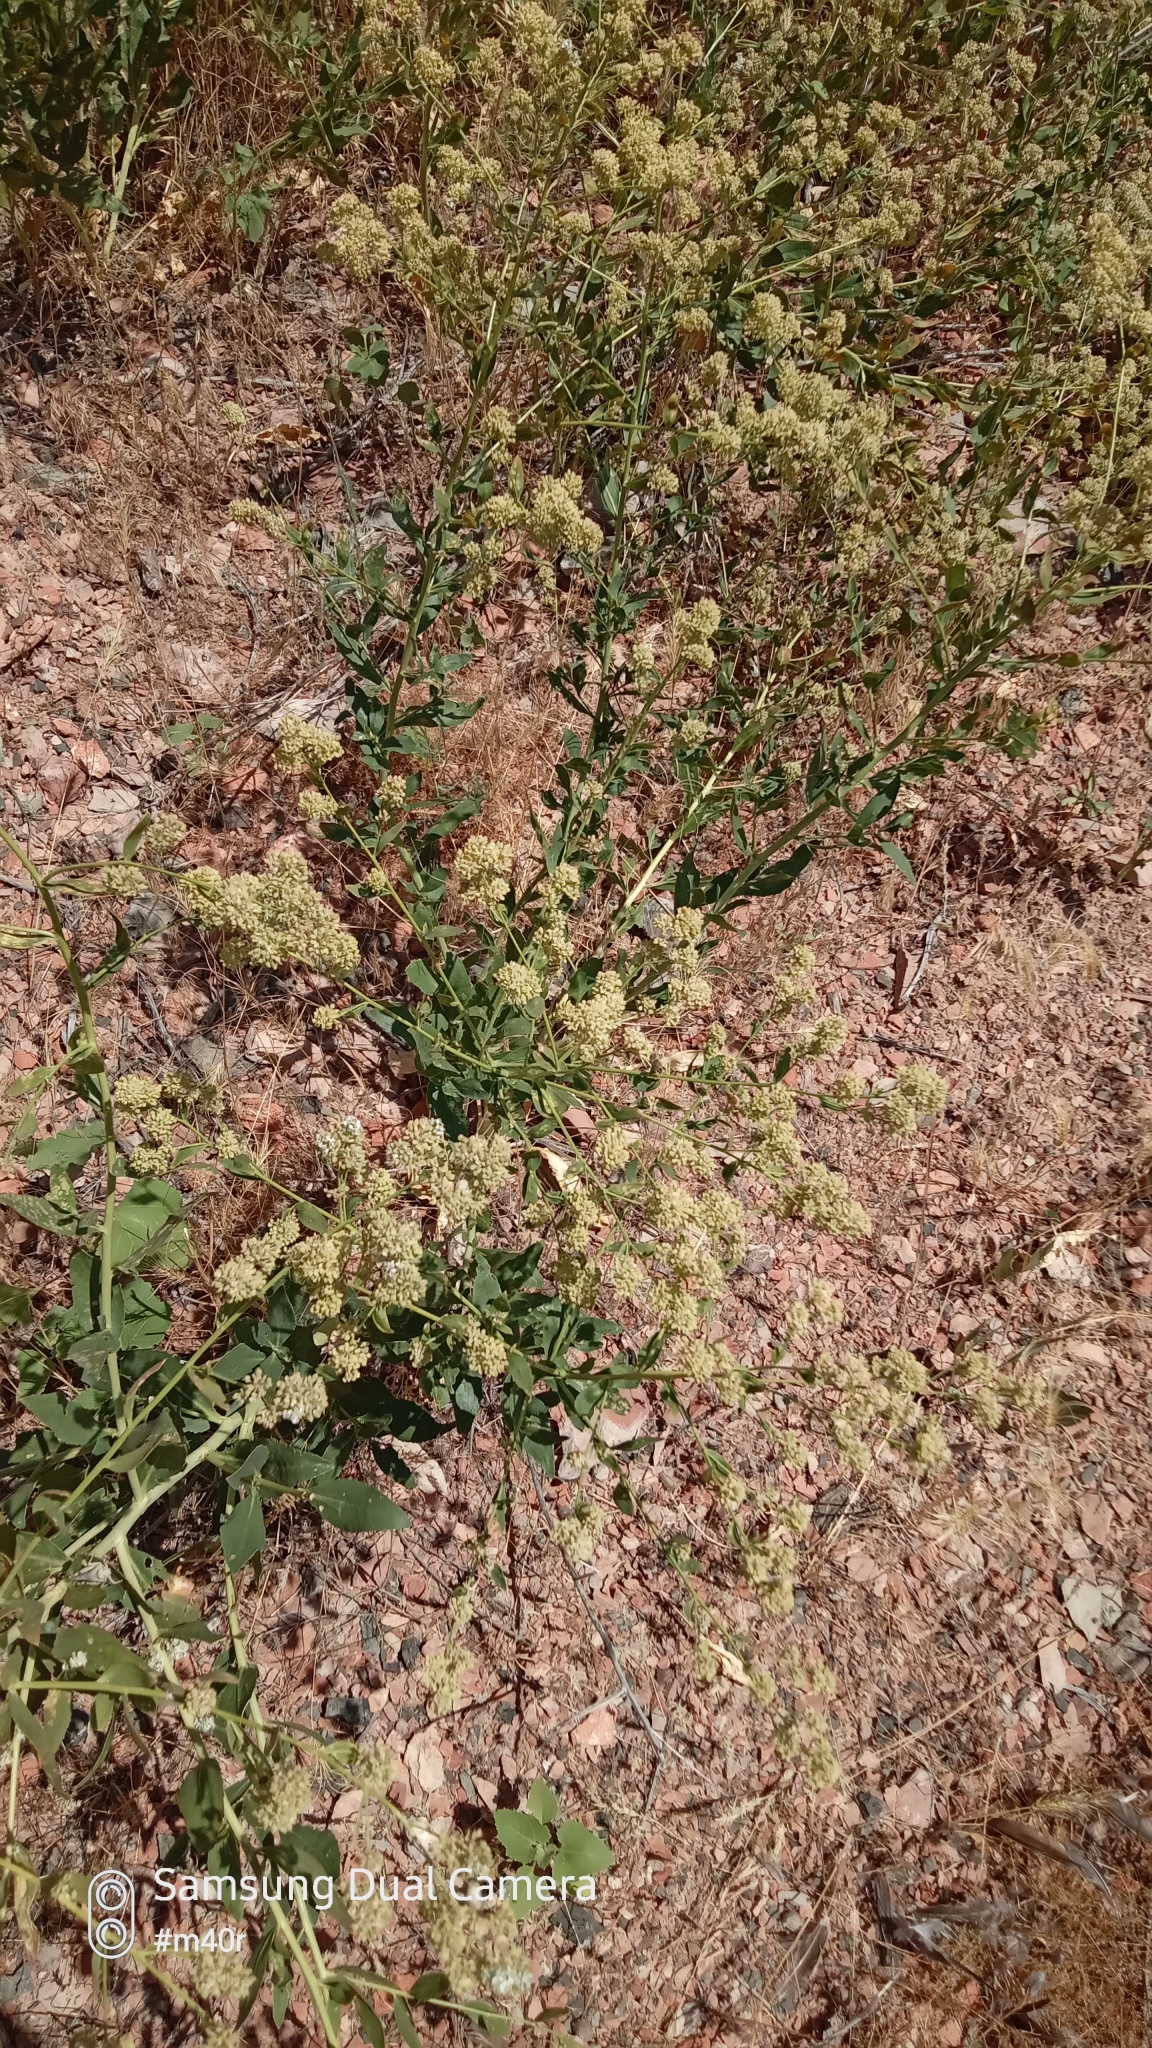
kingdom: Plantae
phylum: Tracheophyta
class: Magnoliopsida
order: Brassicales
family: Brassicaceae
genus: Lepidium
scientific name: Lepidium latifolium
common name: Dittander
